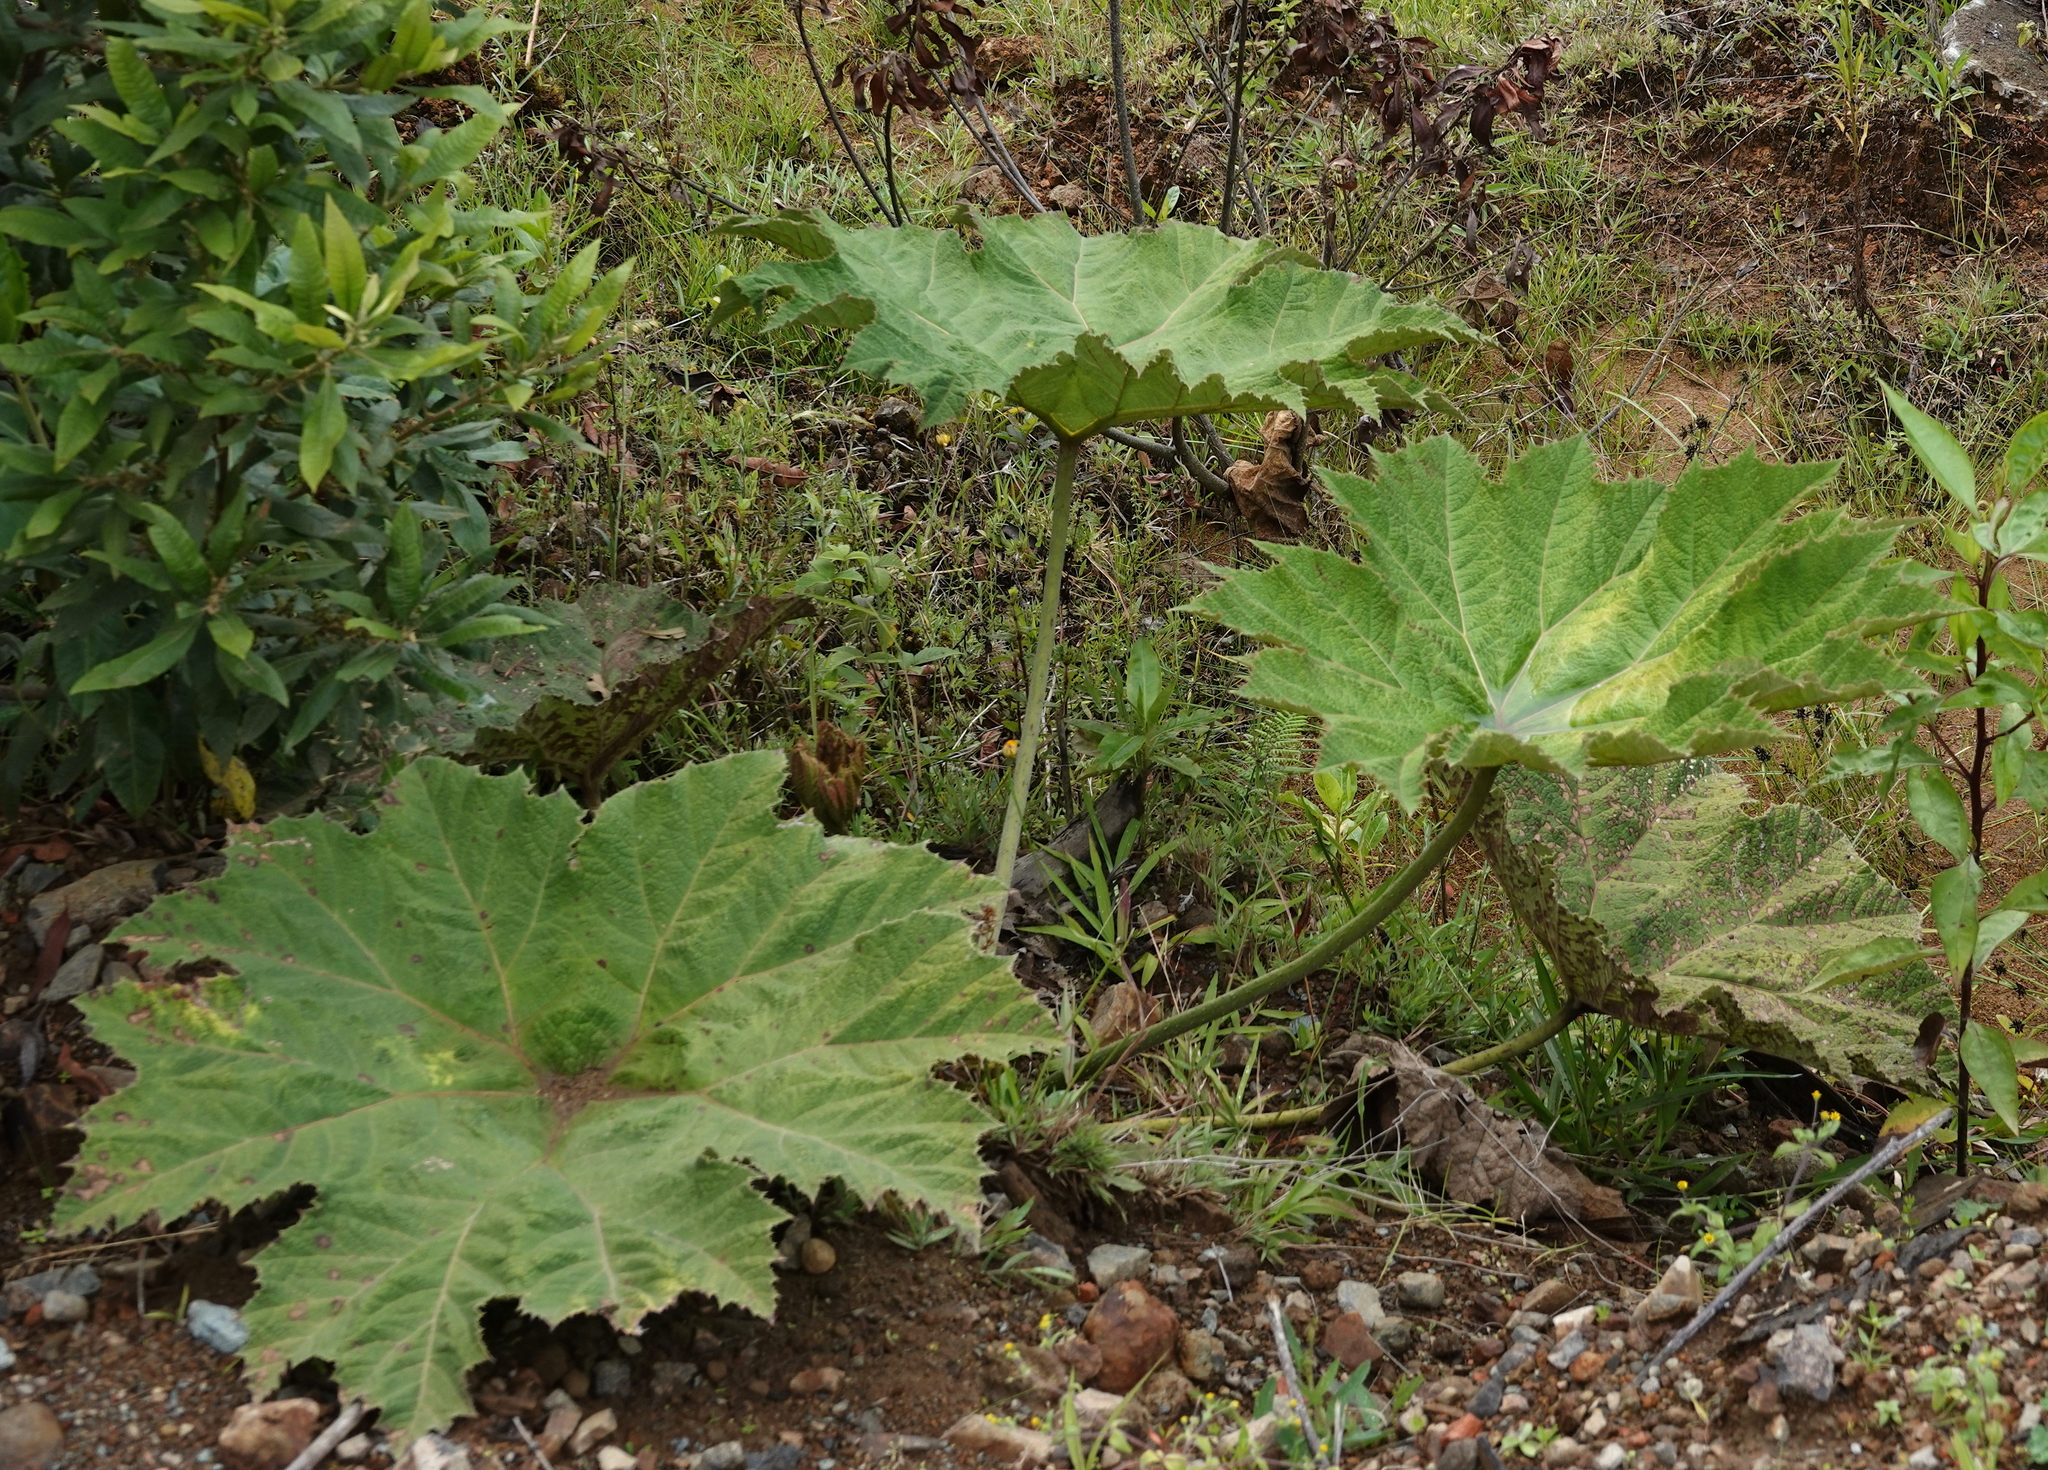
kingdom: Plantae
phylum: Tracheophyta
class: Magnoliopsida
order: Gunnerales
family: Gunneraceae
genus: Gunnera
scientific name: Gunnera manicata
